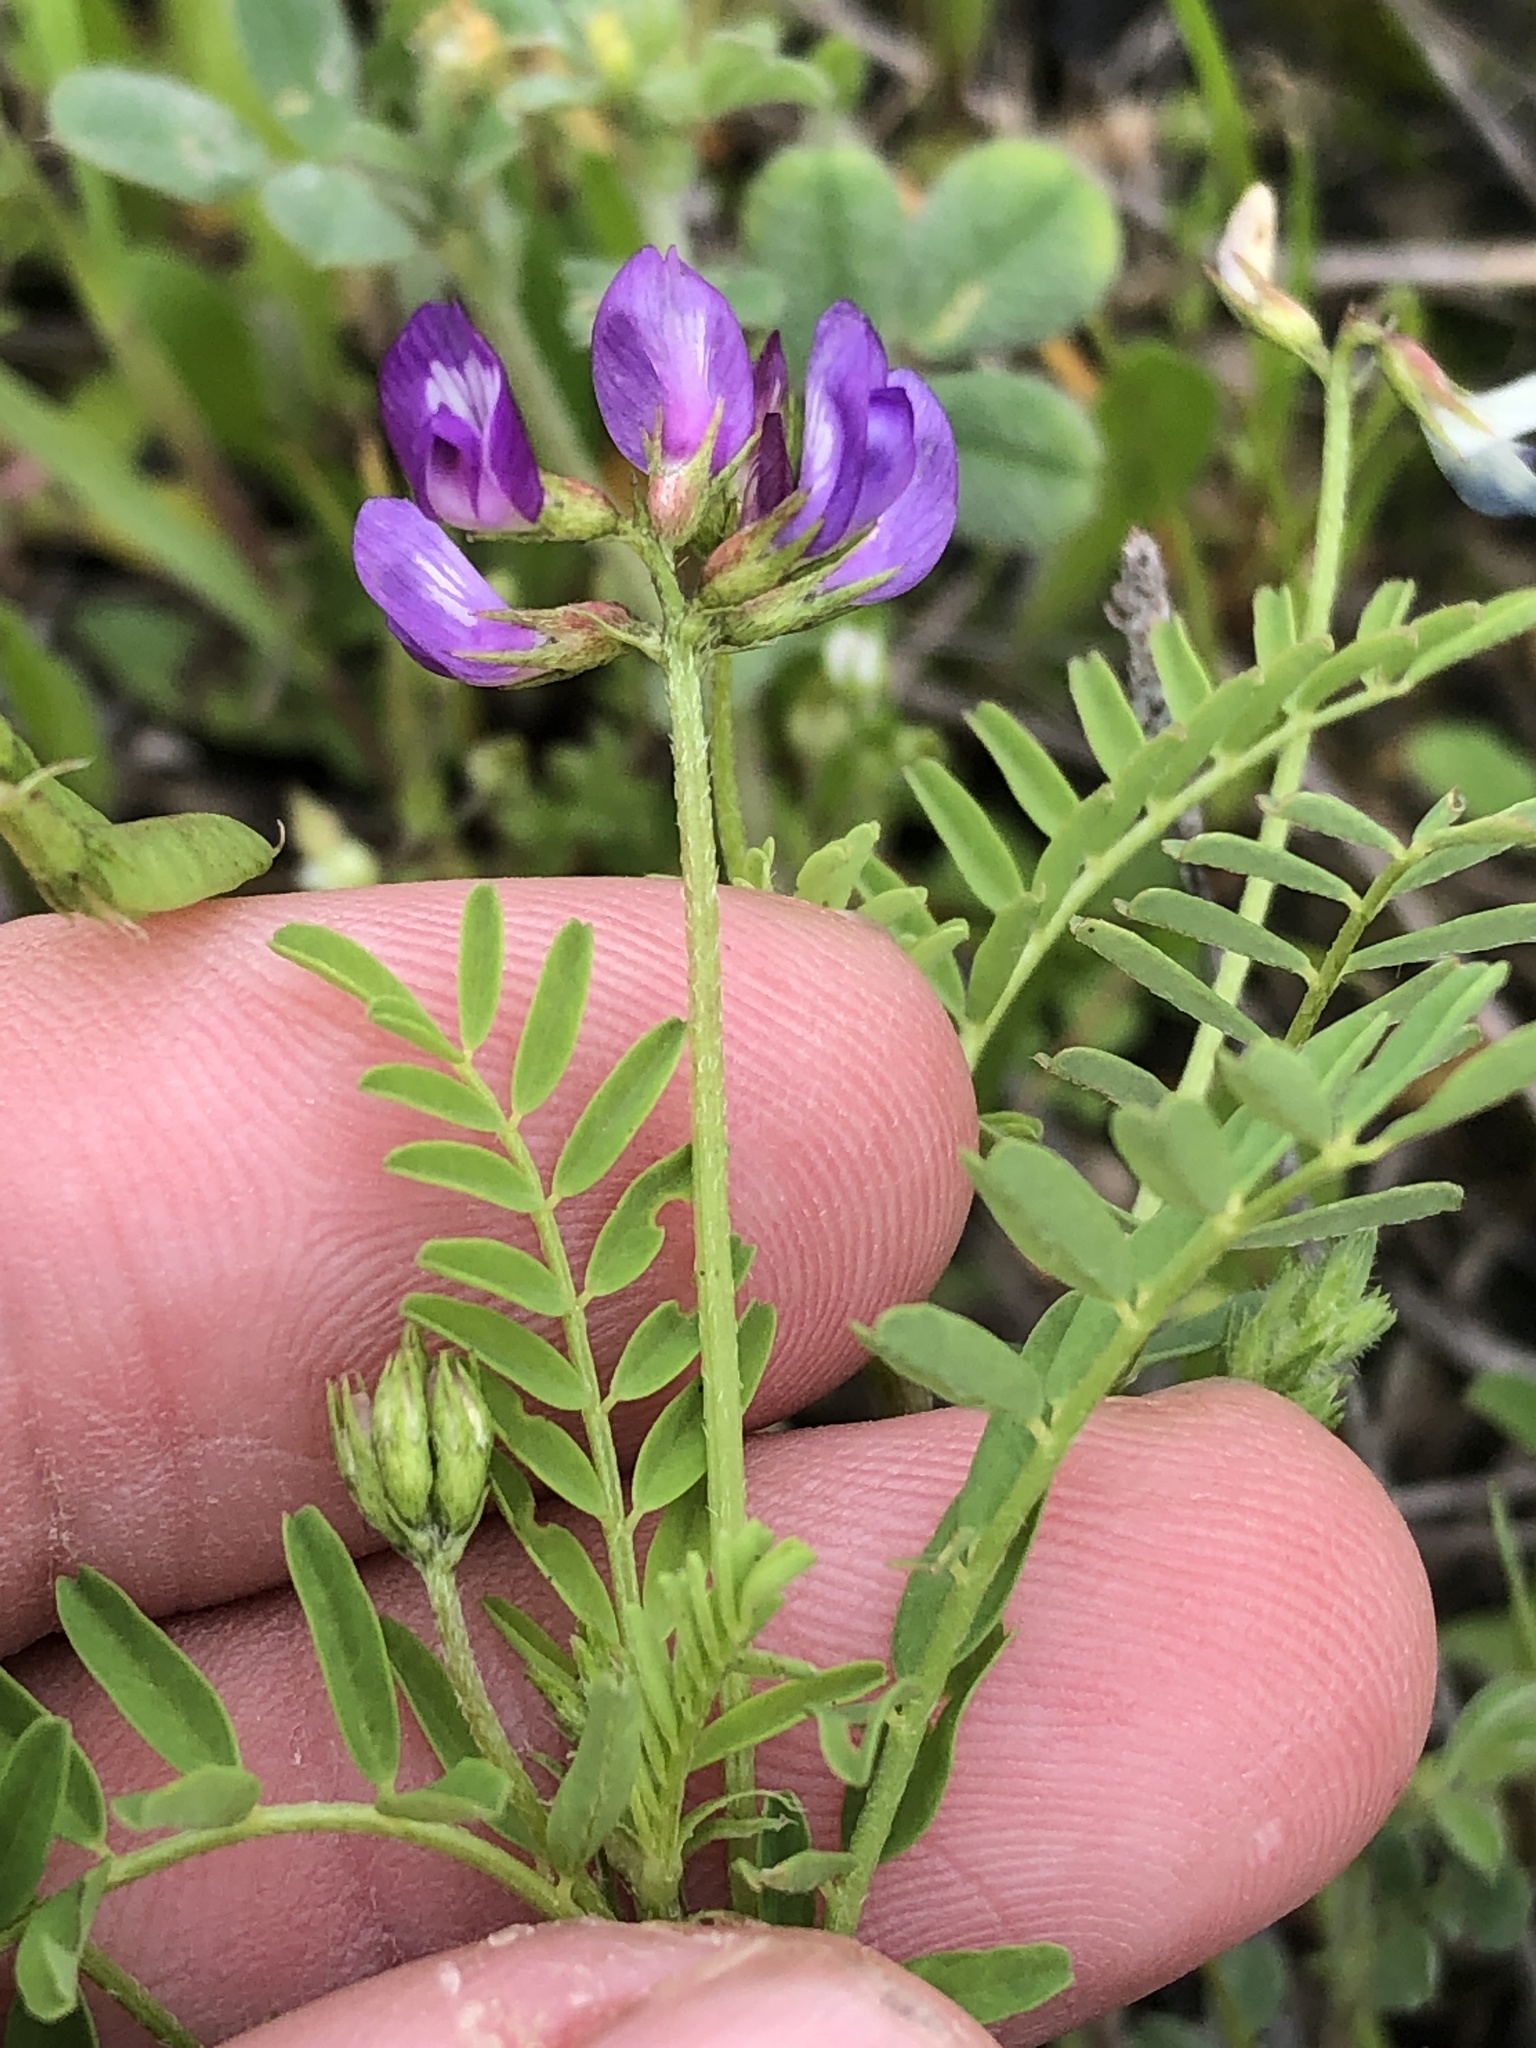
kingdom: Plantae
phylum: Tracheophyta
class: Magnoliopsida
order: Fabales
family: Fabaceae
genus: Astragalus
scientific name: Astragalus leptocarpus
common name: Bodkin milk-vetch
